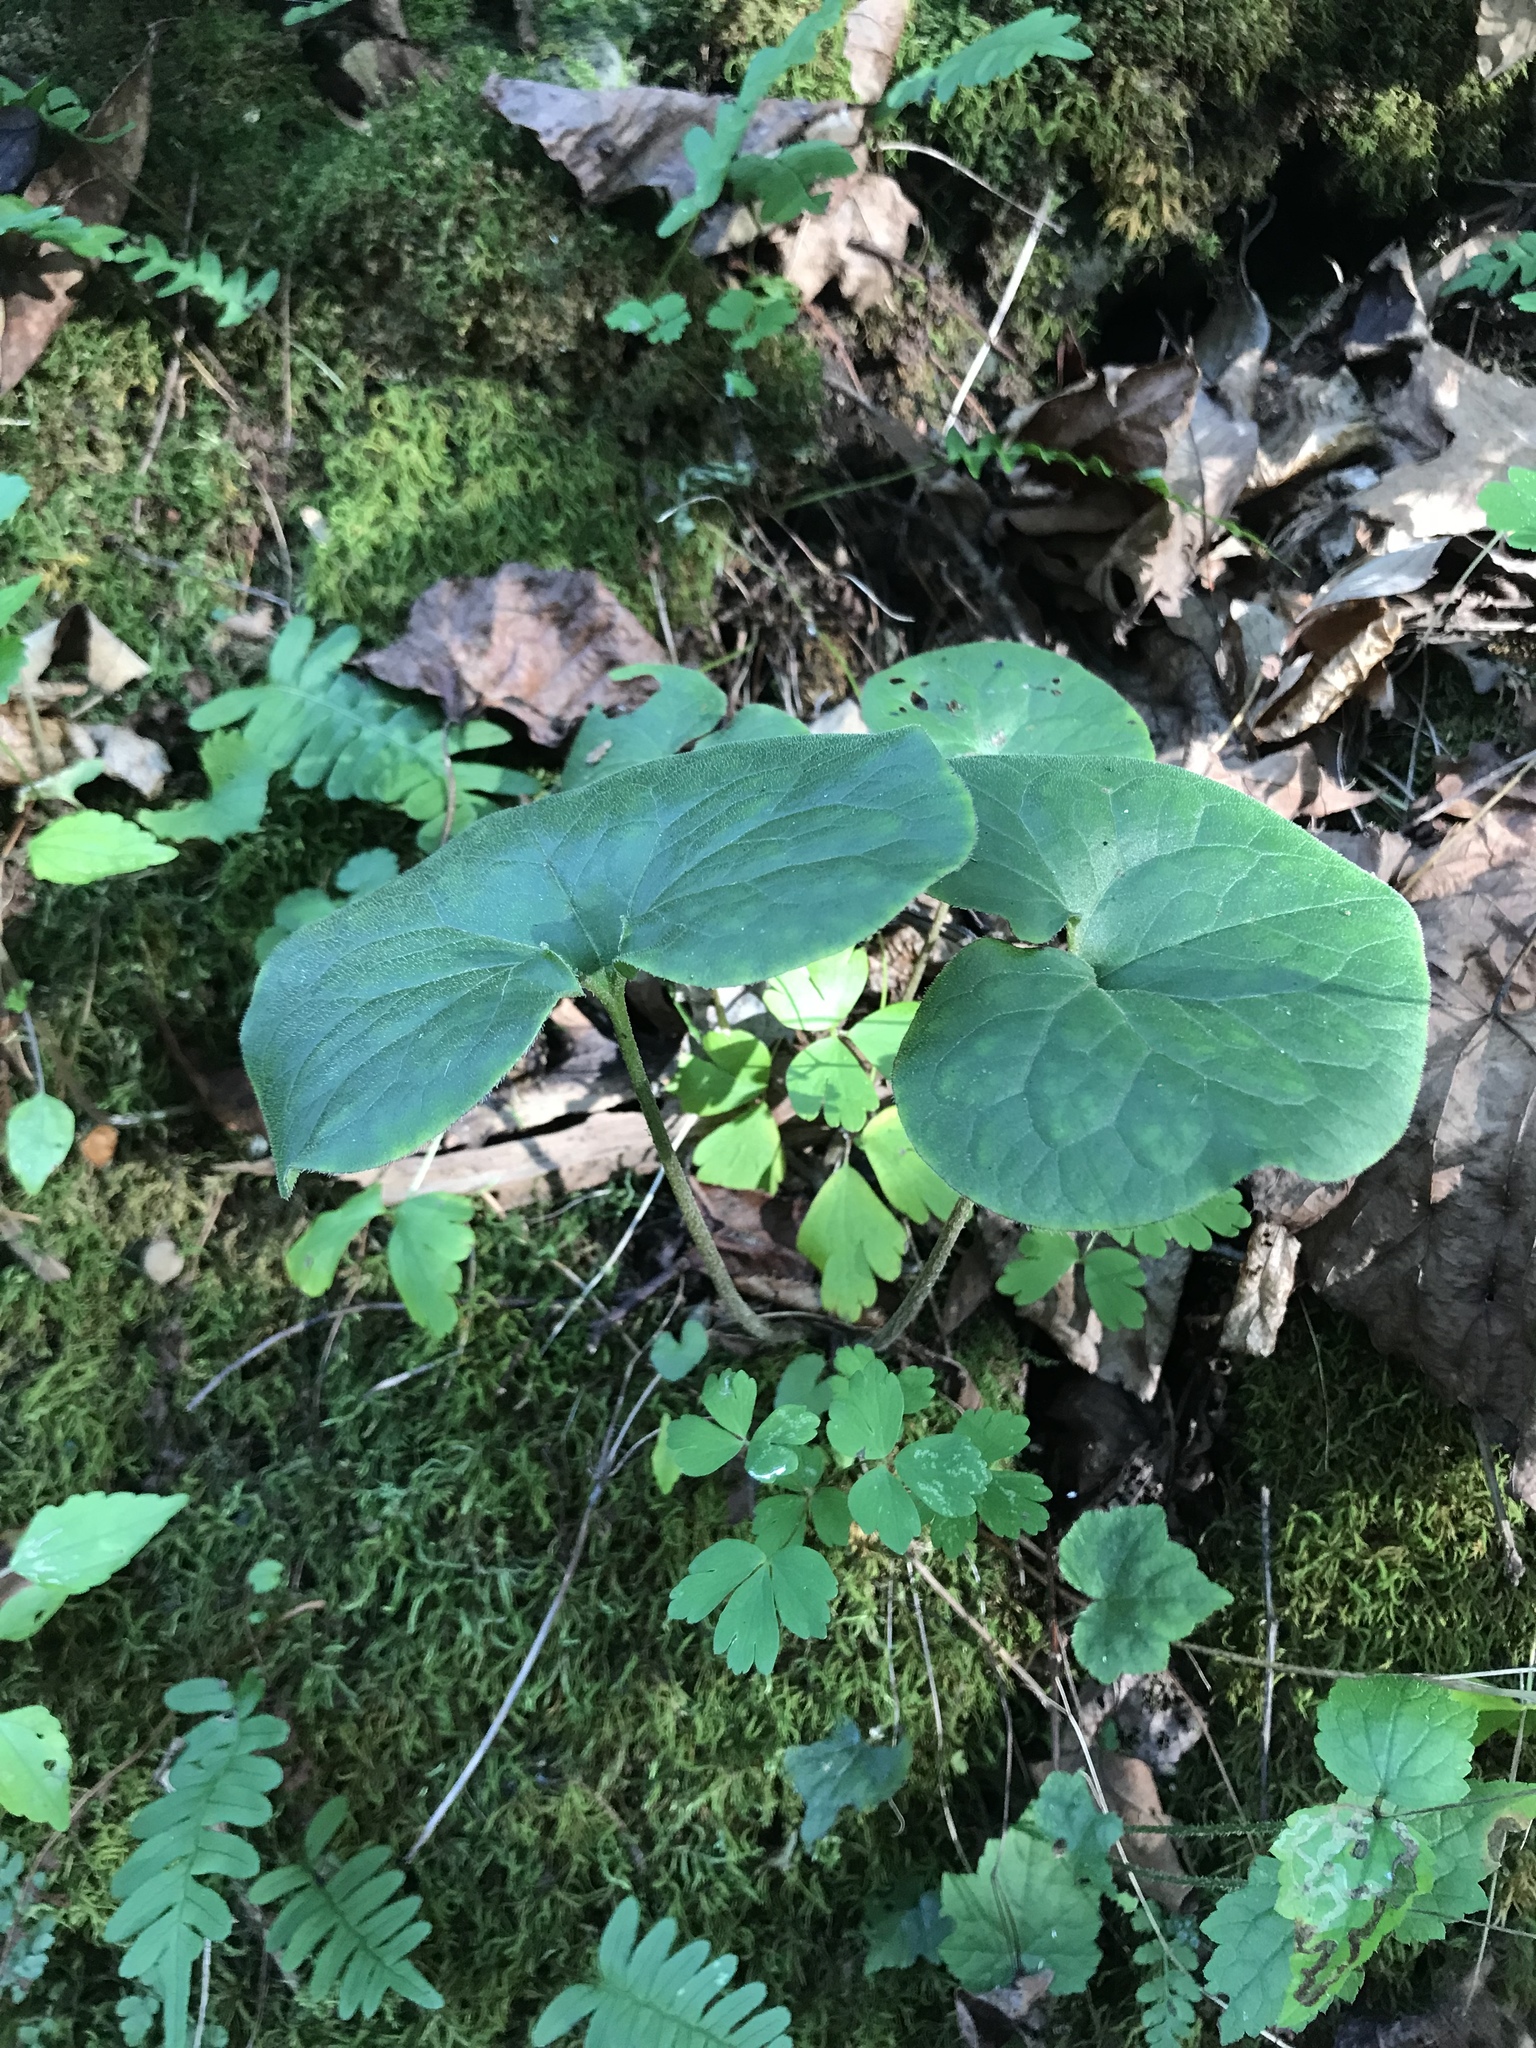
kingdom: Plantae
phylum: Tracheophyta
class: Magnoliopsida
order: Piperales
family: Aristolochiaceae
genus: Asarum
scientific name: Asarum canadense
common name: Wild ginger
